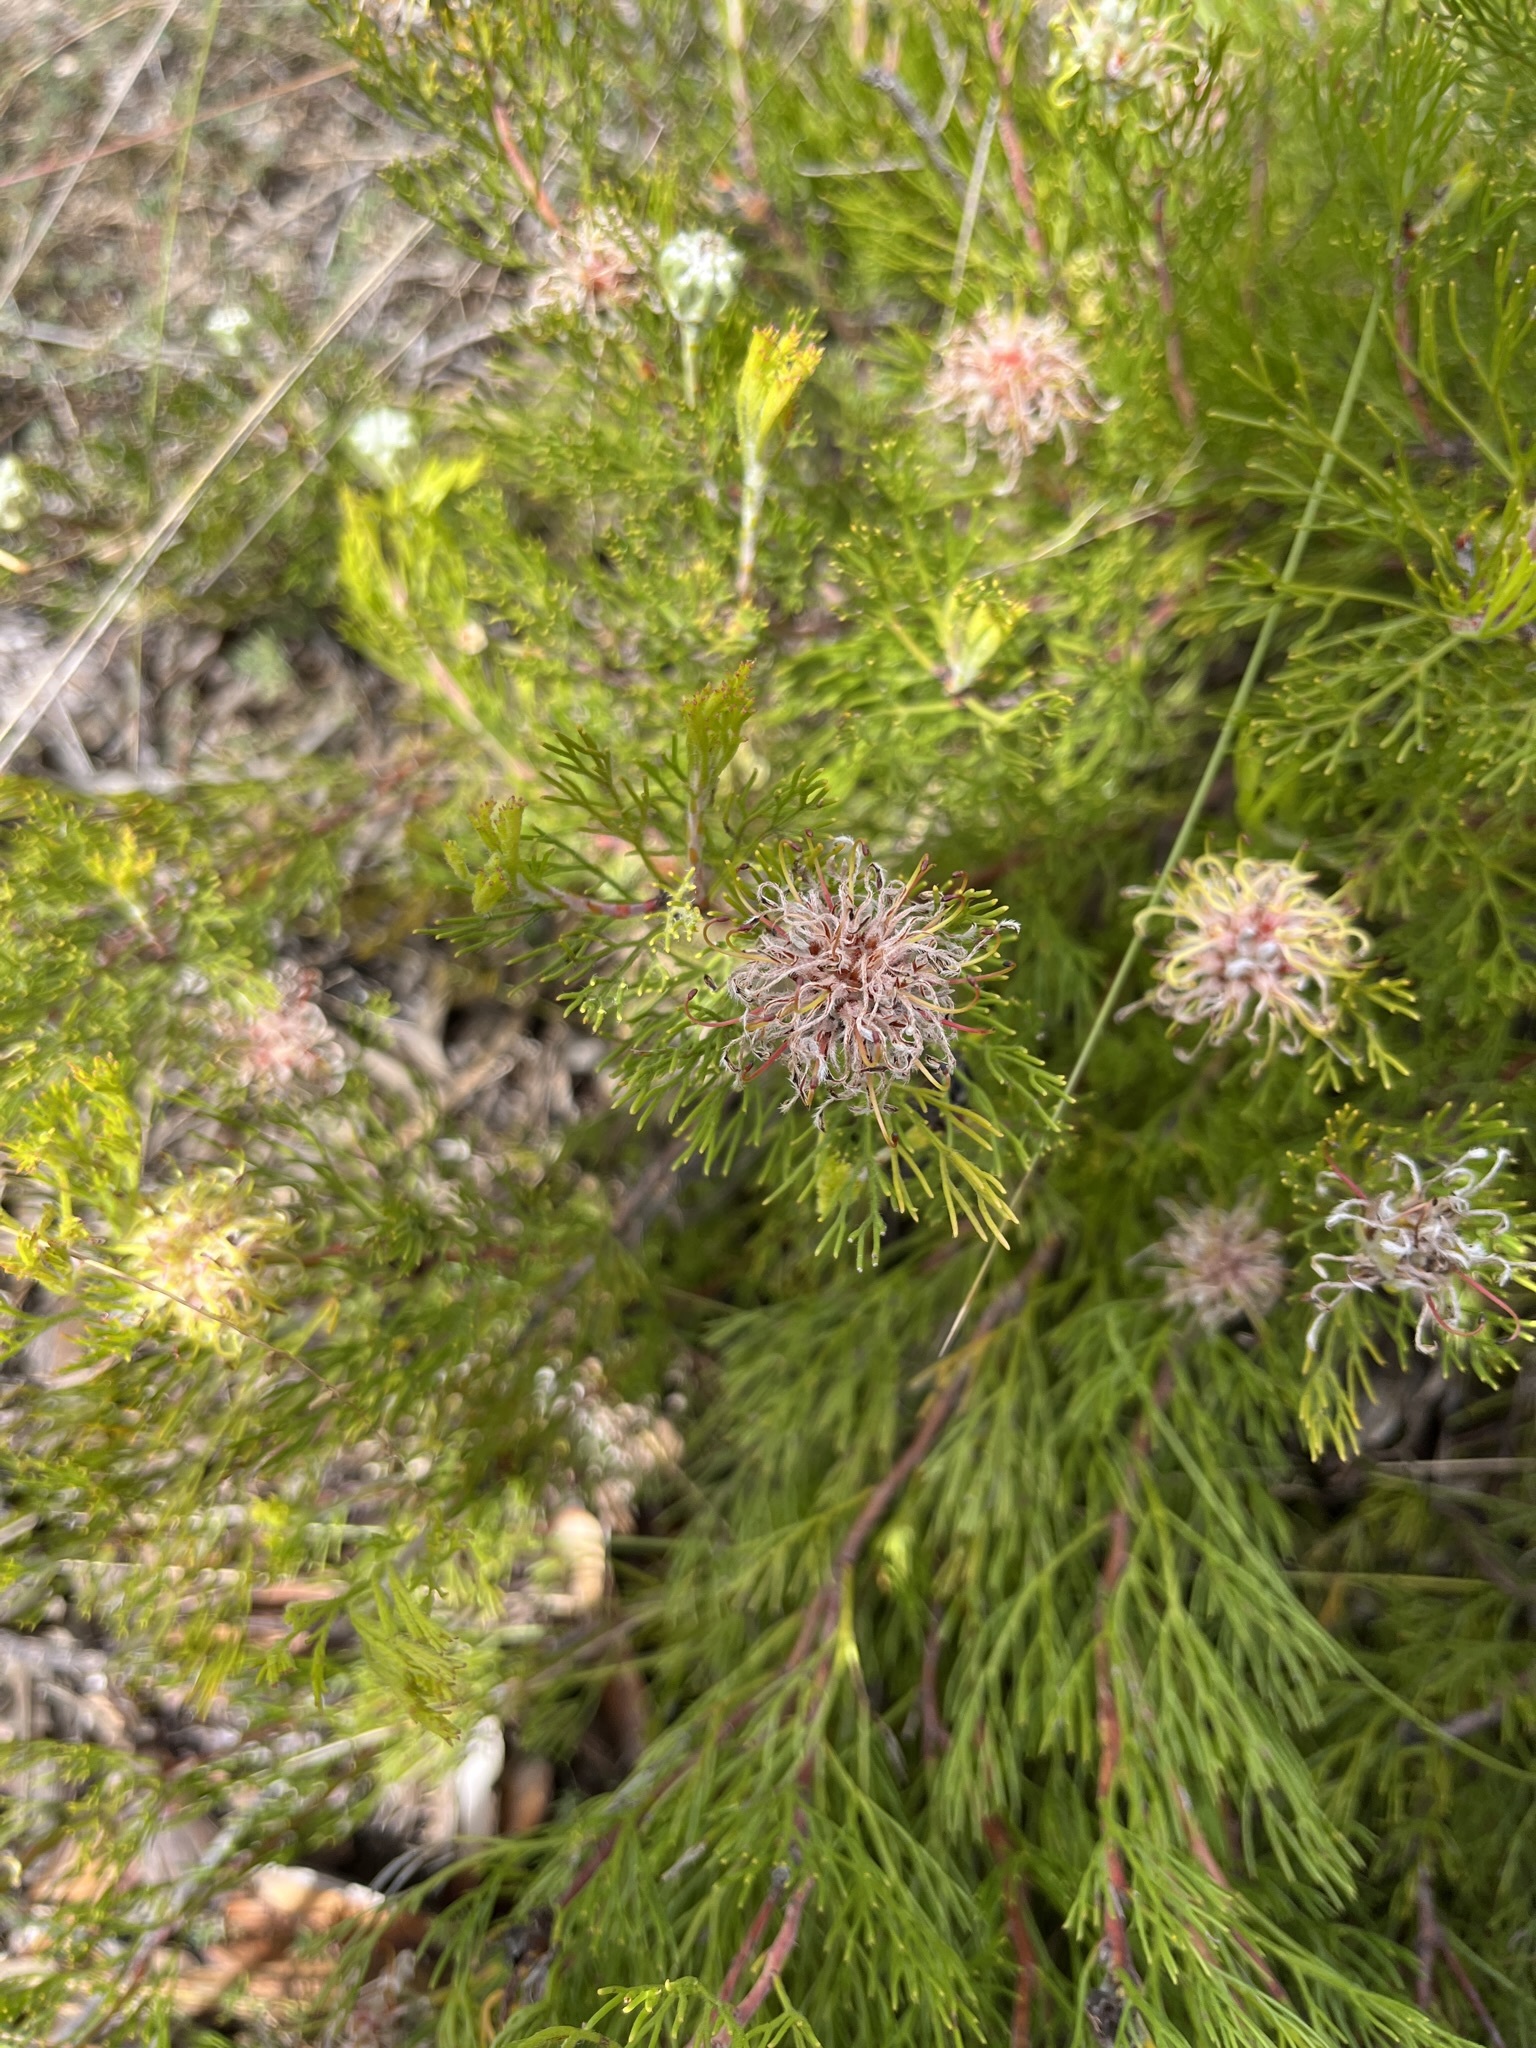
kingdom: Plantae
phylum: Tracheophyta
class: Magnoliopsida
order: Proteales
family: Proteaceae
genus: Serruria
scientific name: Serruria
